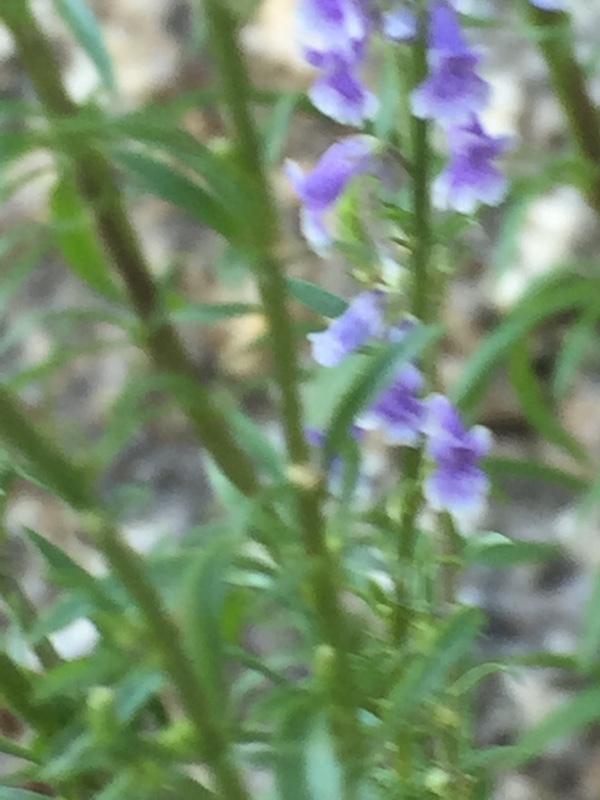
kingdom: Plantae
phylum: Tracheophyta
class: Magnoliopsida
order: Lamiales
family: Plantaginaceae
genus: Anarrhinum
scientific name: Anarrhinum bellidifolium
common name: Daisy-leaved toadflax
